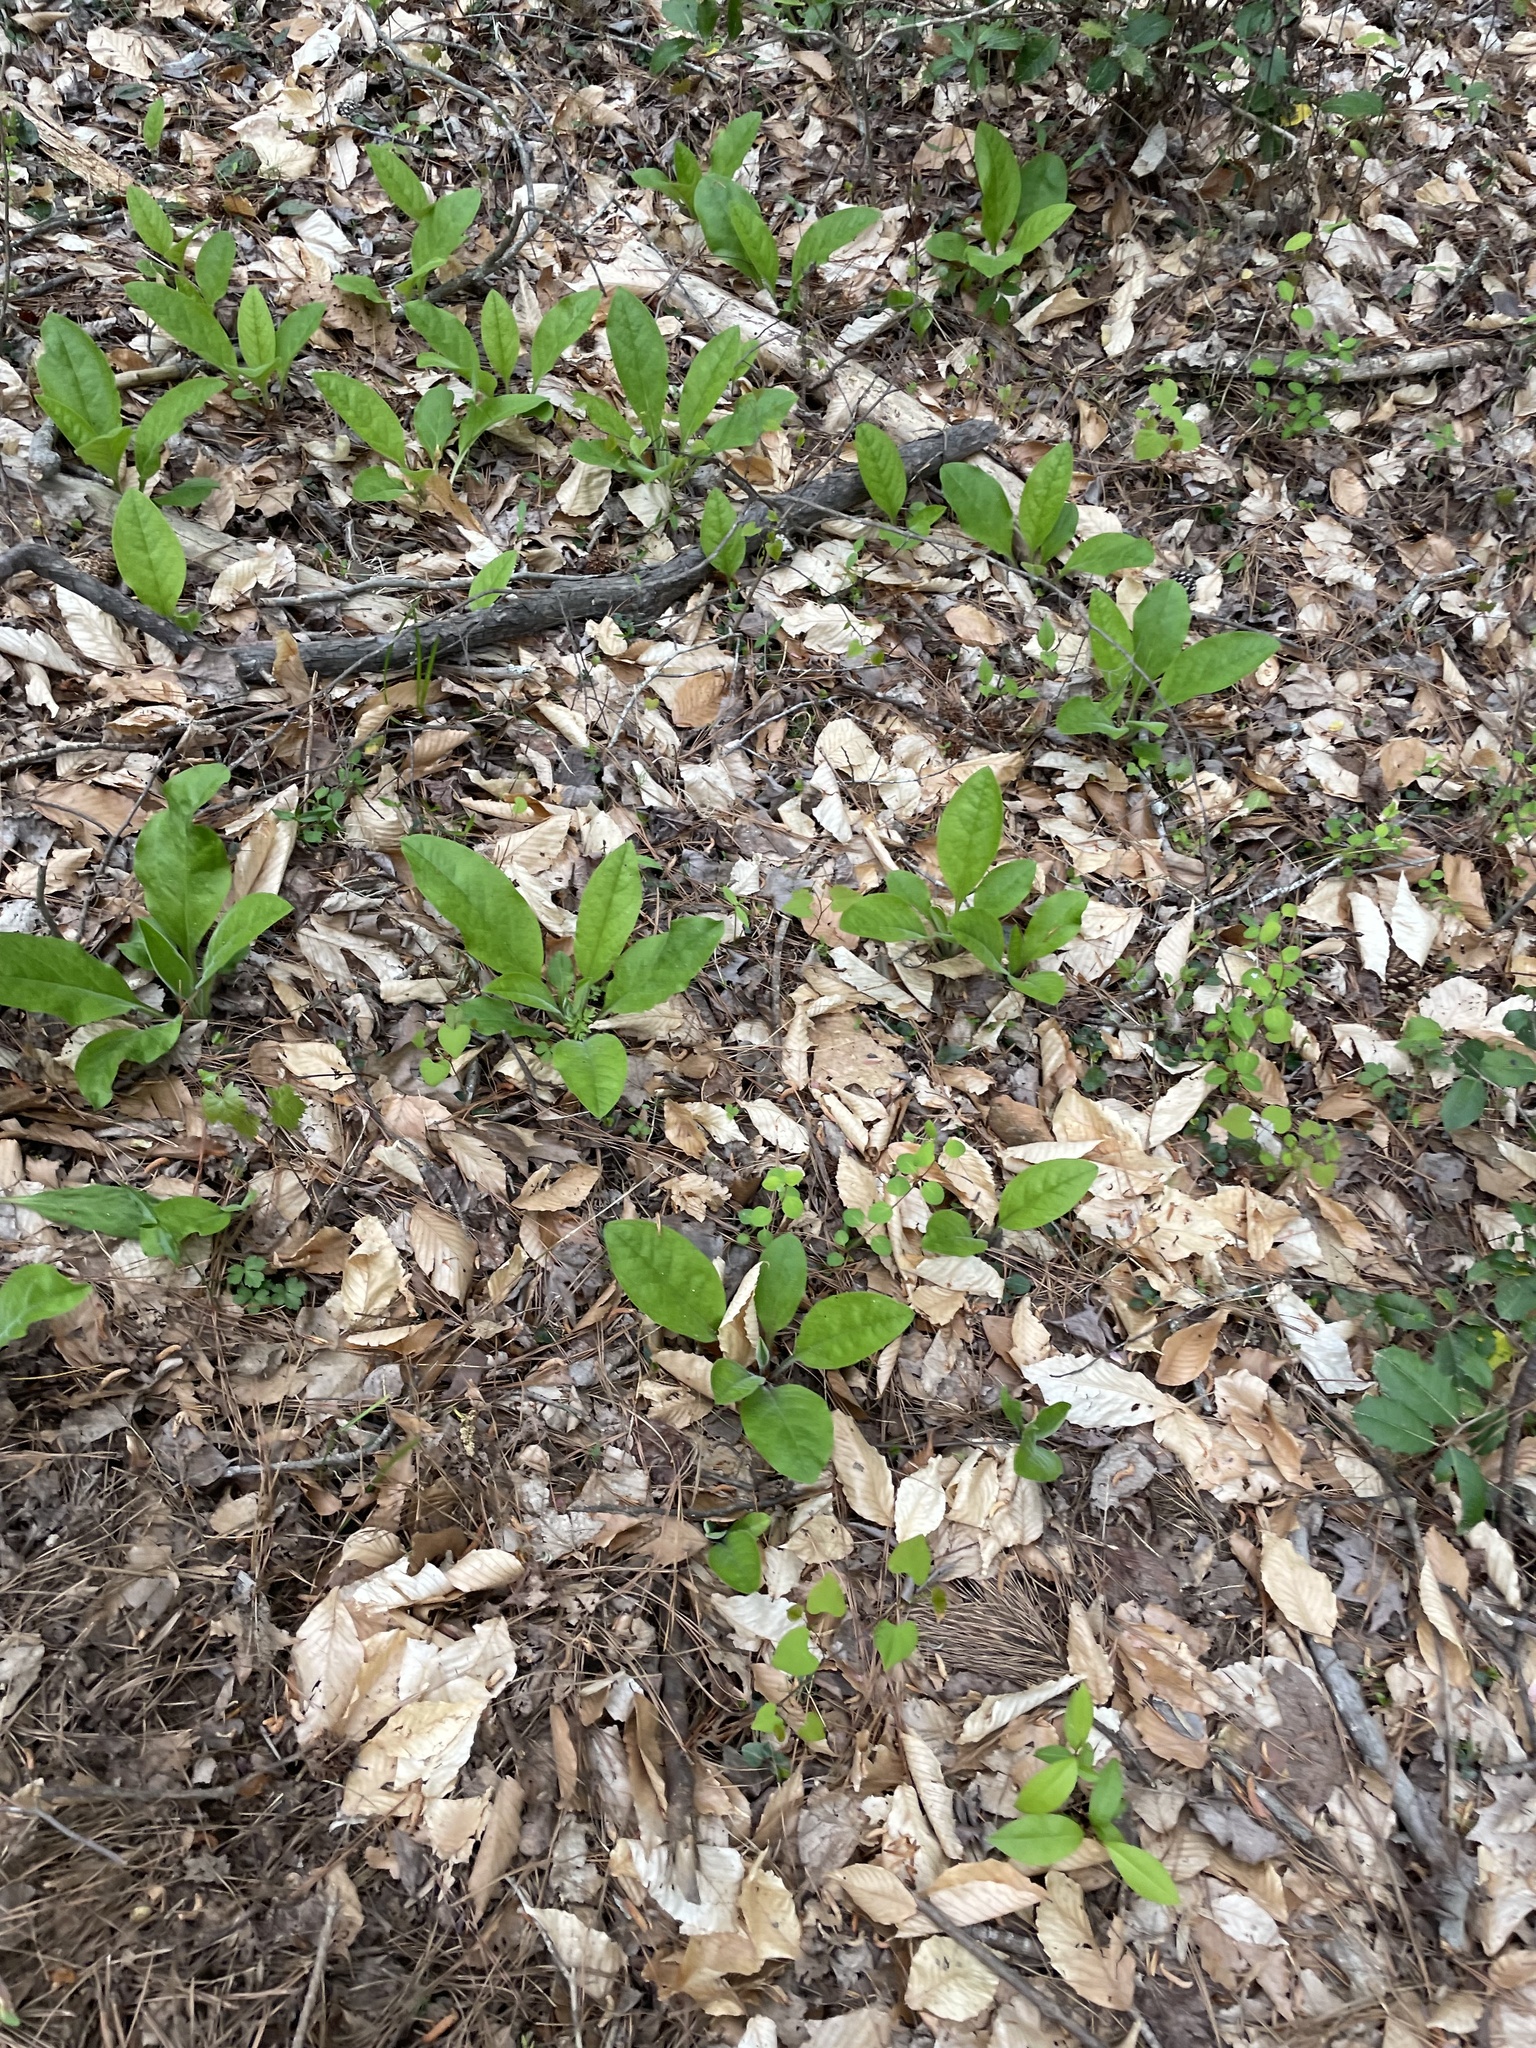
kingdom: Plantae
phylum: Tracheophyta
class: Magnoliopsida
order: Boraginales
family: Boraginaceae
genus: Andersonglossum
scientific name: Andersonglossum virginianum
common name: Wild comfrey
